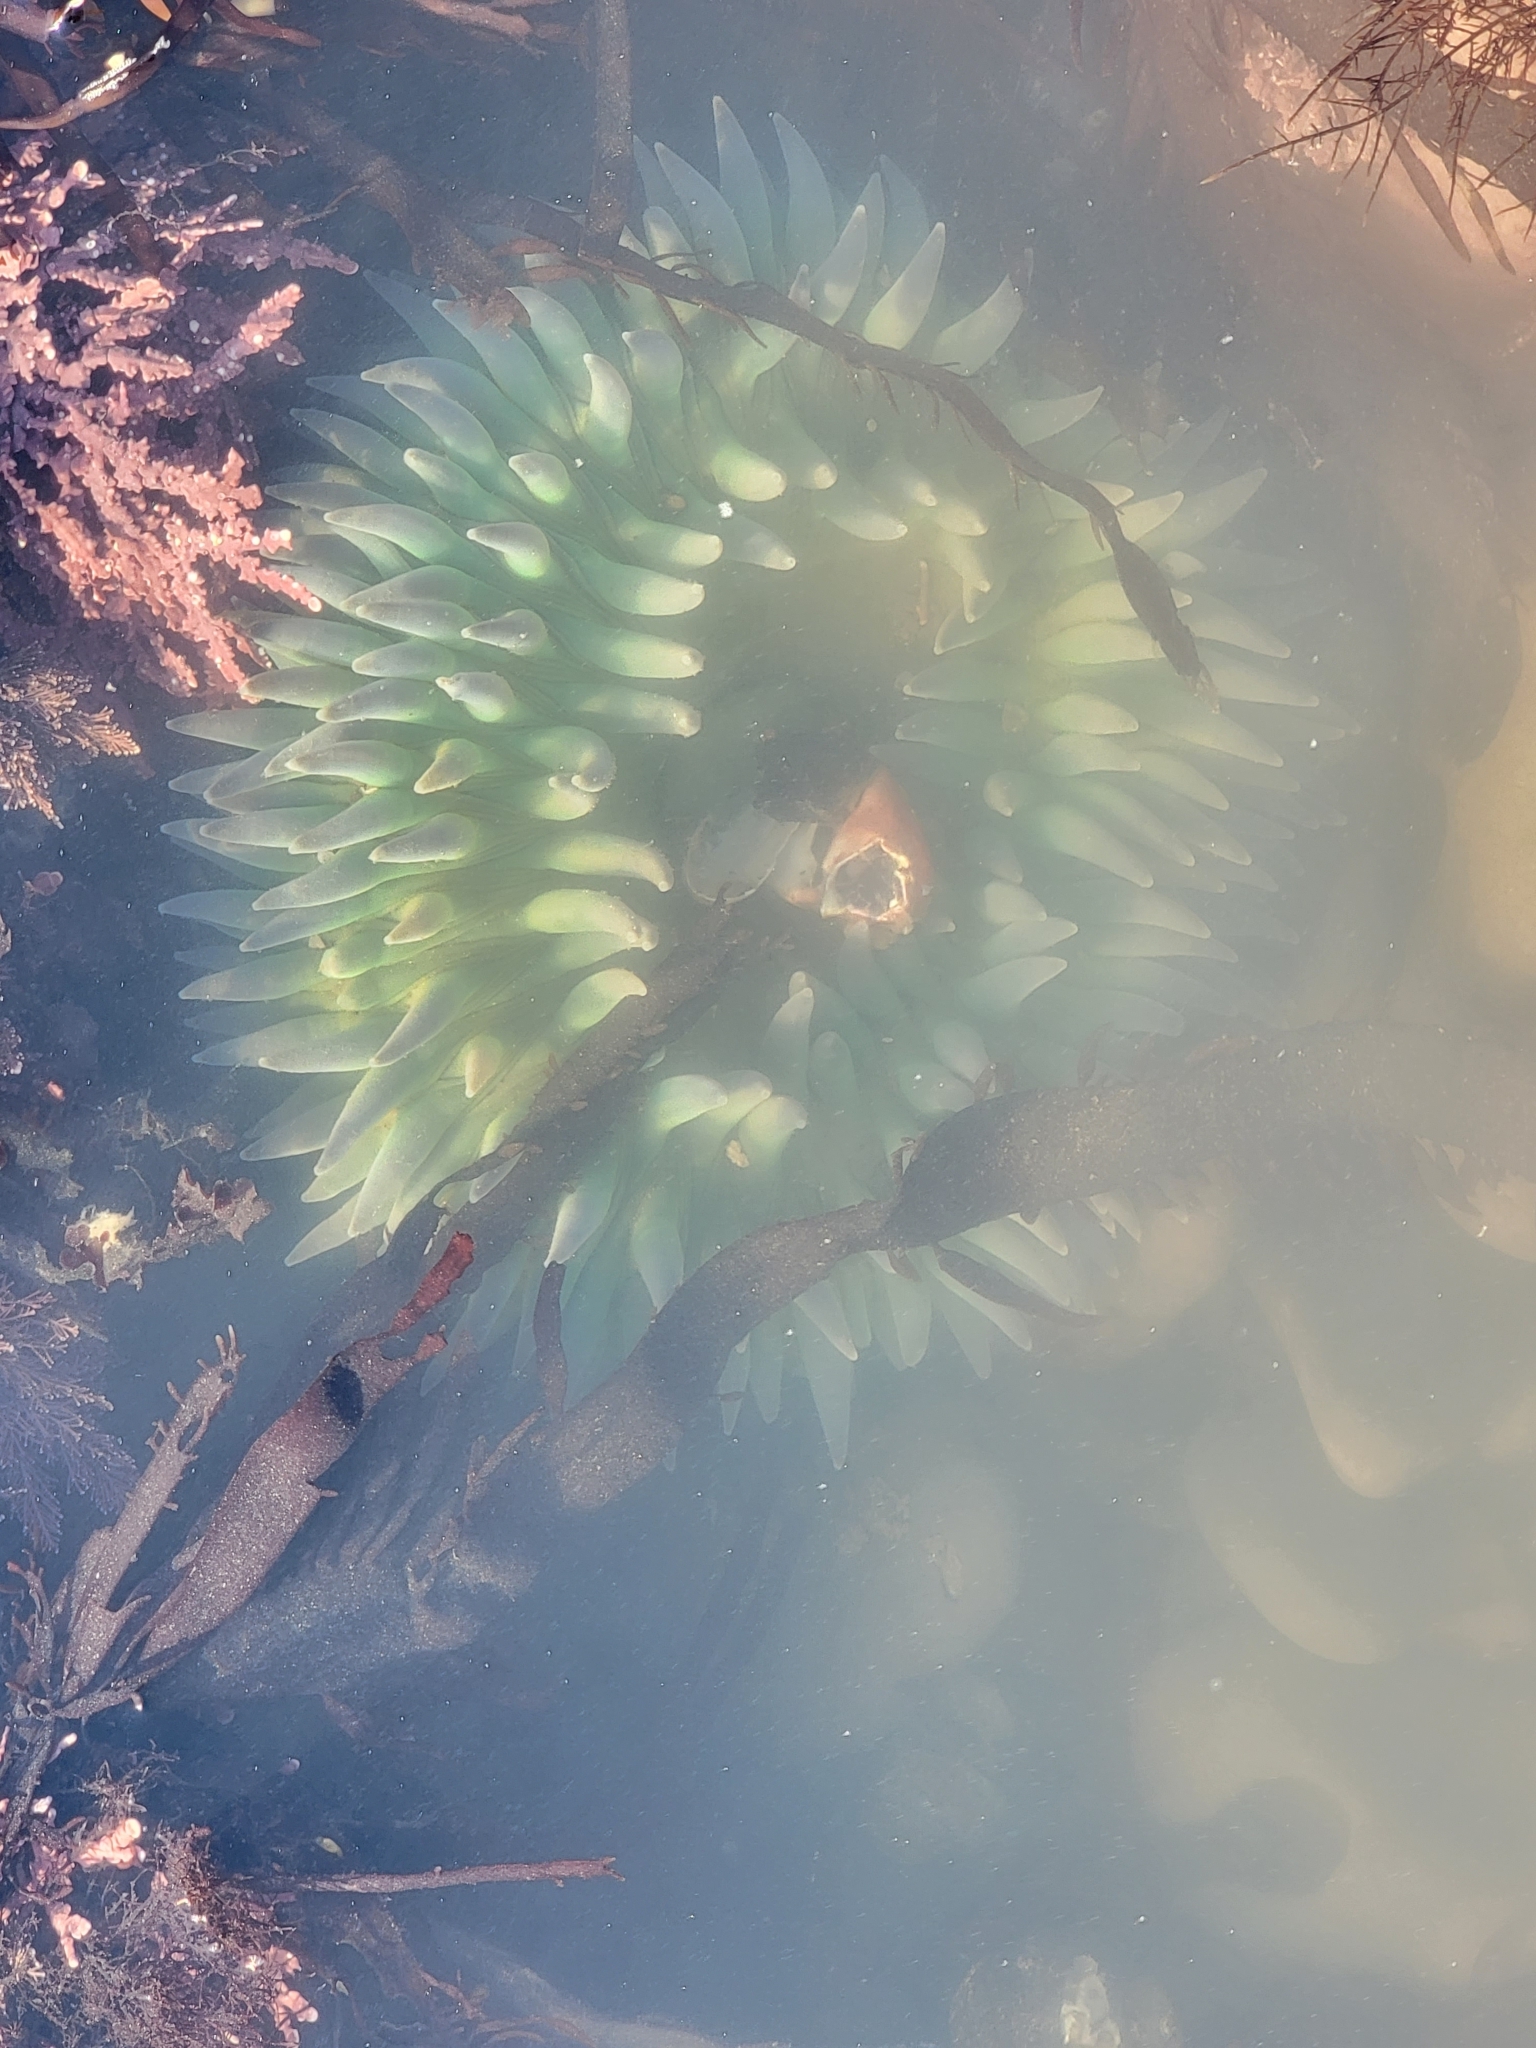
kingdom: Animalia
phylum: Cnidaria
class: Anthozoa
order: Actiniaria
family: Actiniidae
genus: Anthopleura
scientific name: Anthopleura xanthogrammica
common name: Giant green anemone
